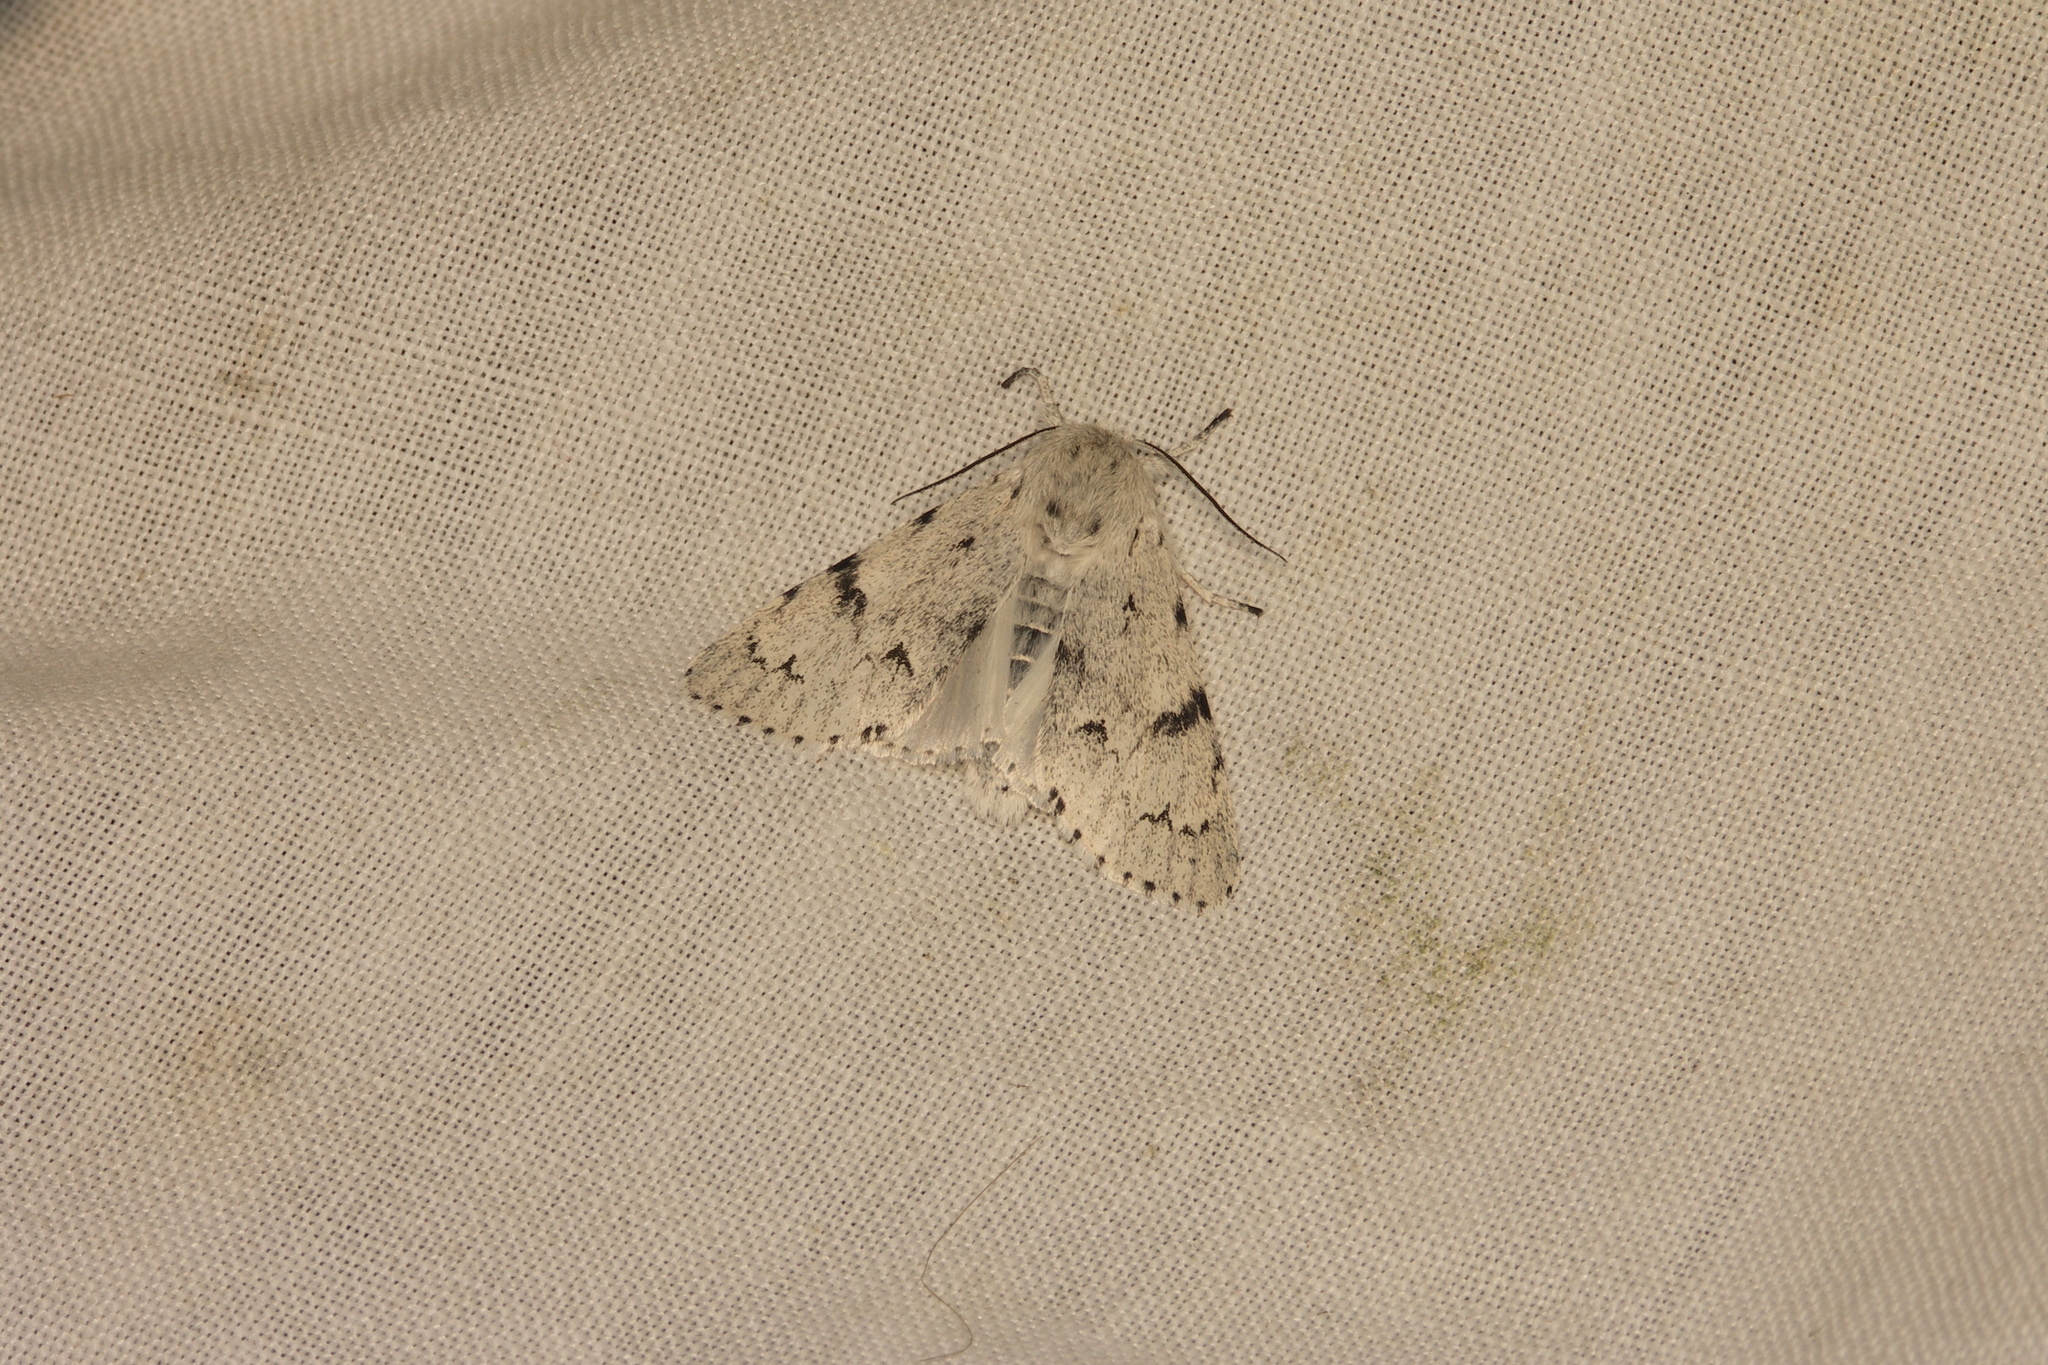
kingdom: Animalia
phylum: Arthropoda
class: Insecta
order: Lepidoptera
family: Noctuidae
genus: Acronicta
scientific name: Acronicta leporina
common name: Miller
